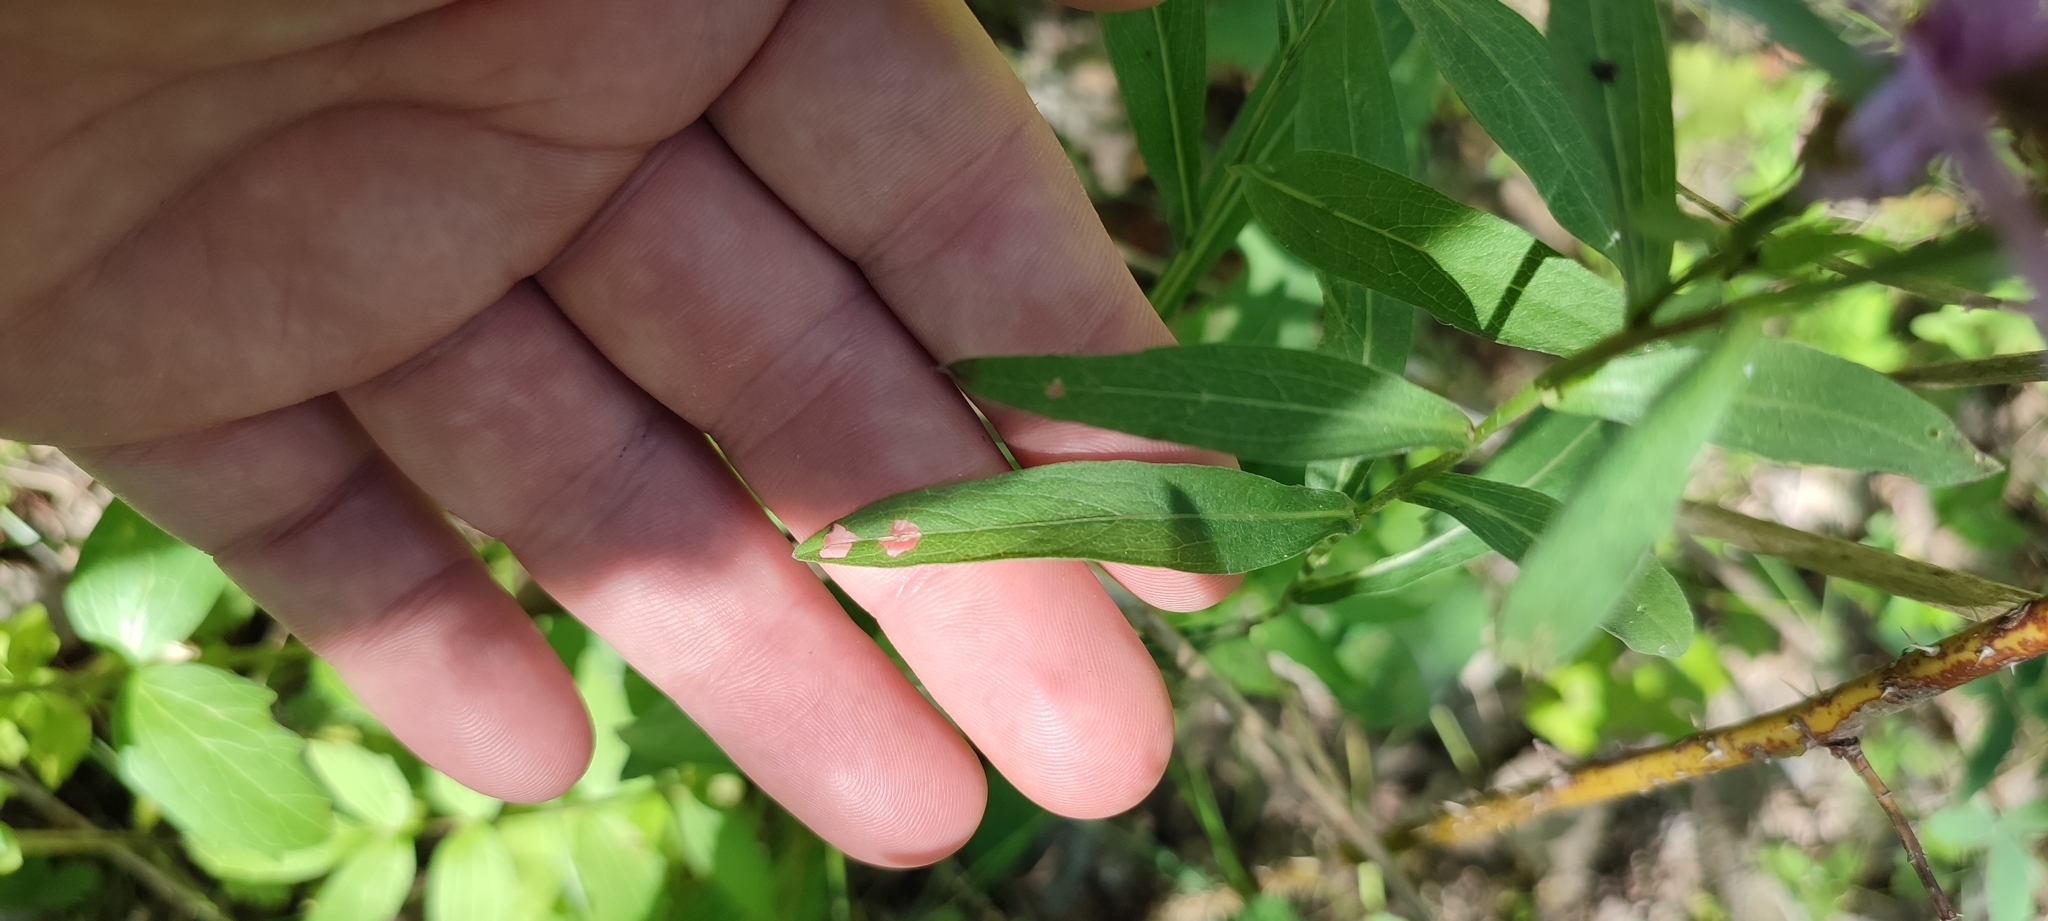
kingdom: Plantae
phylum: Tracheophyta
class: Magnoliopsida
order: Asterales
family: Asteraceae
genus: Centaurea
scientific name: Centaurea jacea
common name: Brown knapweed
